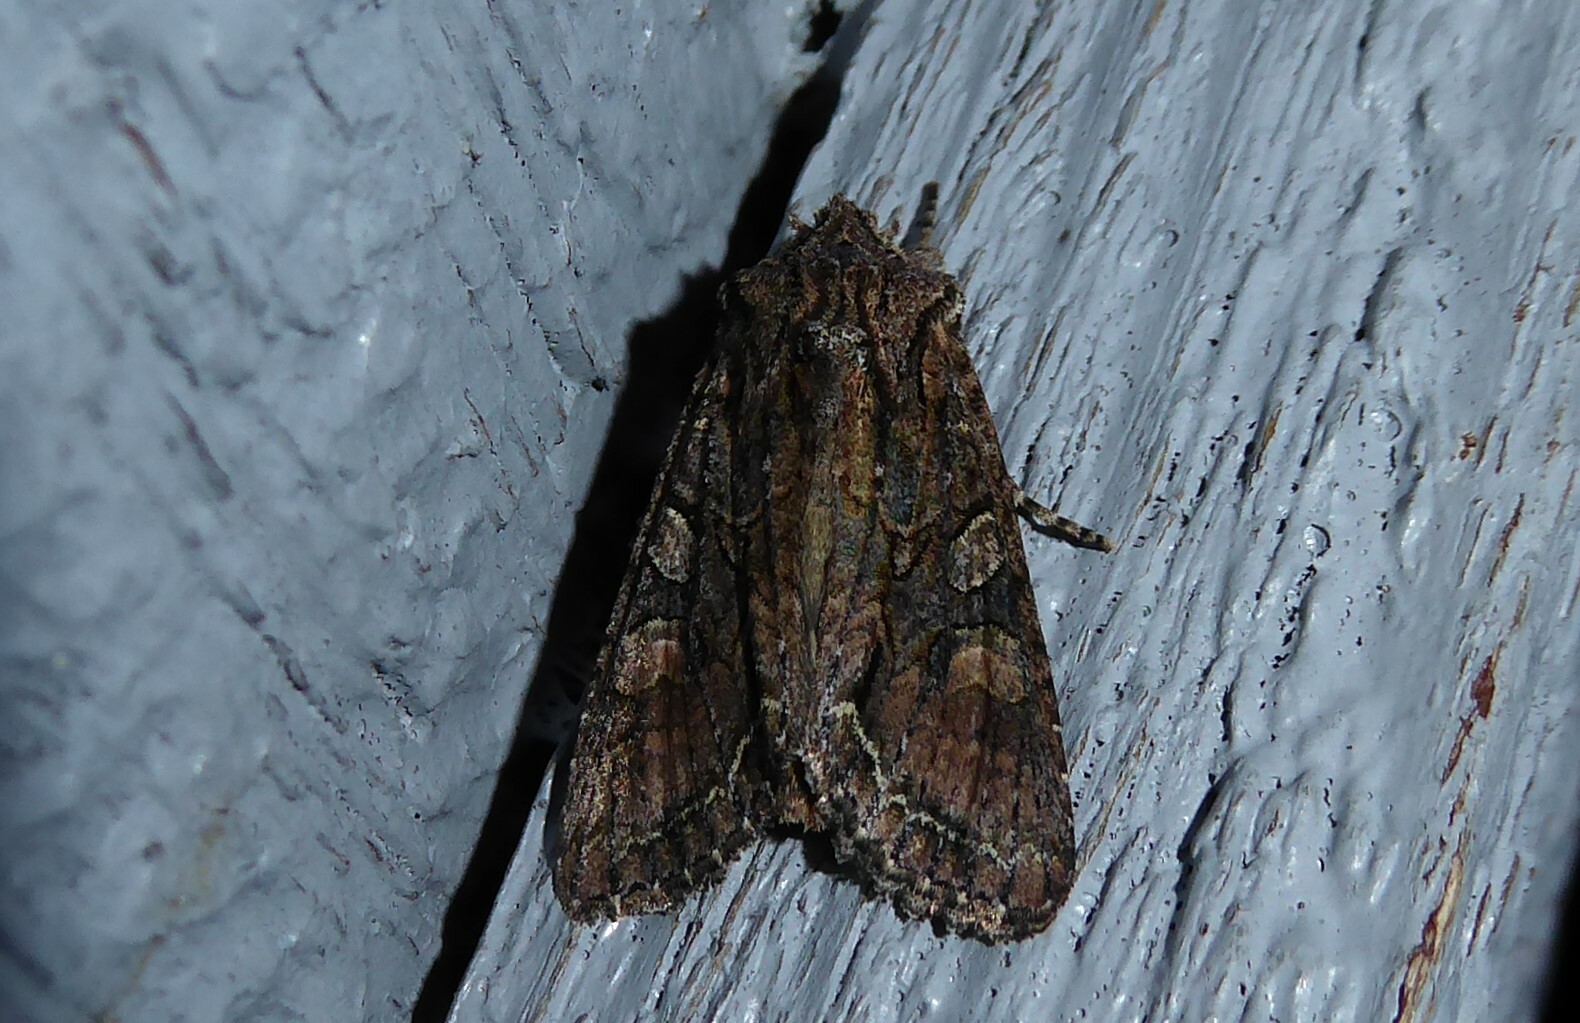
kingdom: Animalia
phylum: Arthropoda
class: Insecta
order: Lepidoptera
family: Noctuidae
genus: Ichneutica
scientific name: Ichneutica mutans
